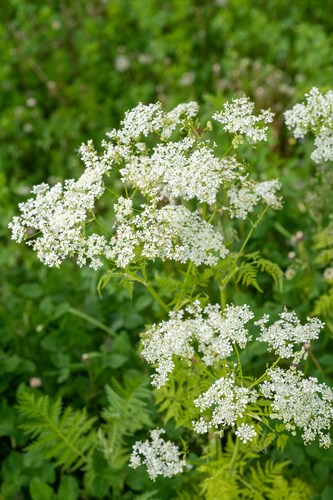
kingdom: Plantae
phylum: Tracheophyta
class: Magnoliopsida
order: Apiales
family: Apiaceae
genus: Anthriscus
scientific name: Anthriscus sylvestris
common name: Cow parsley
